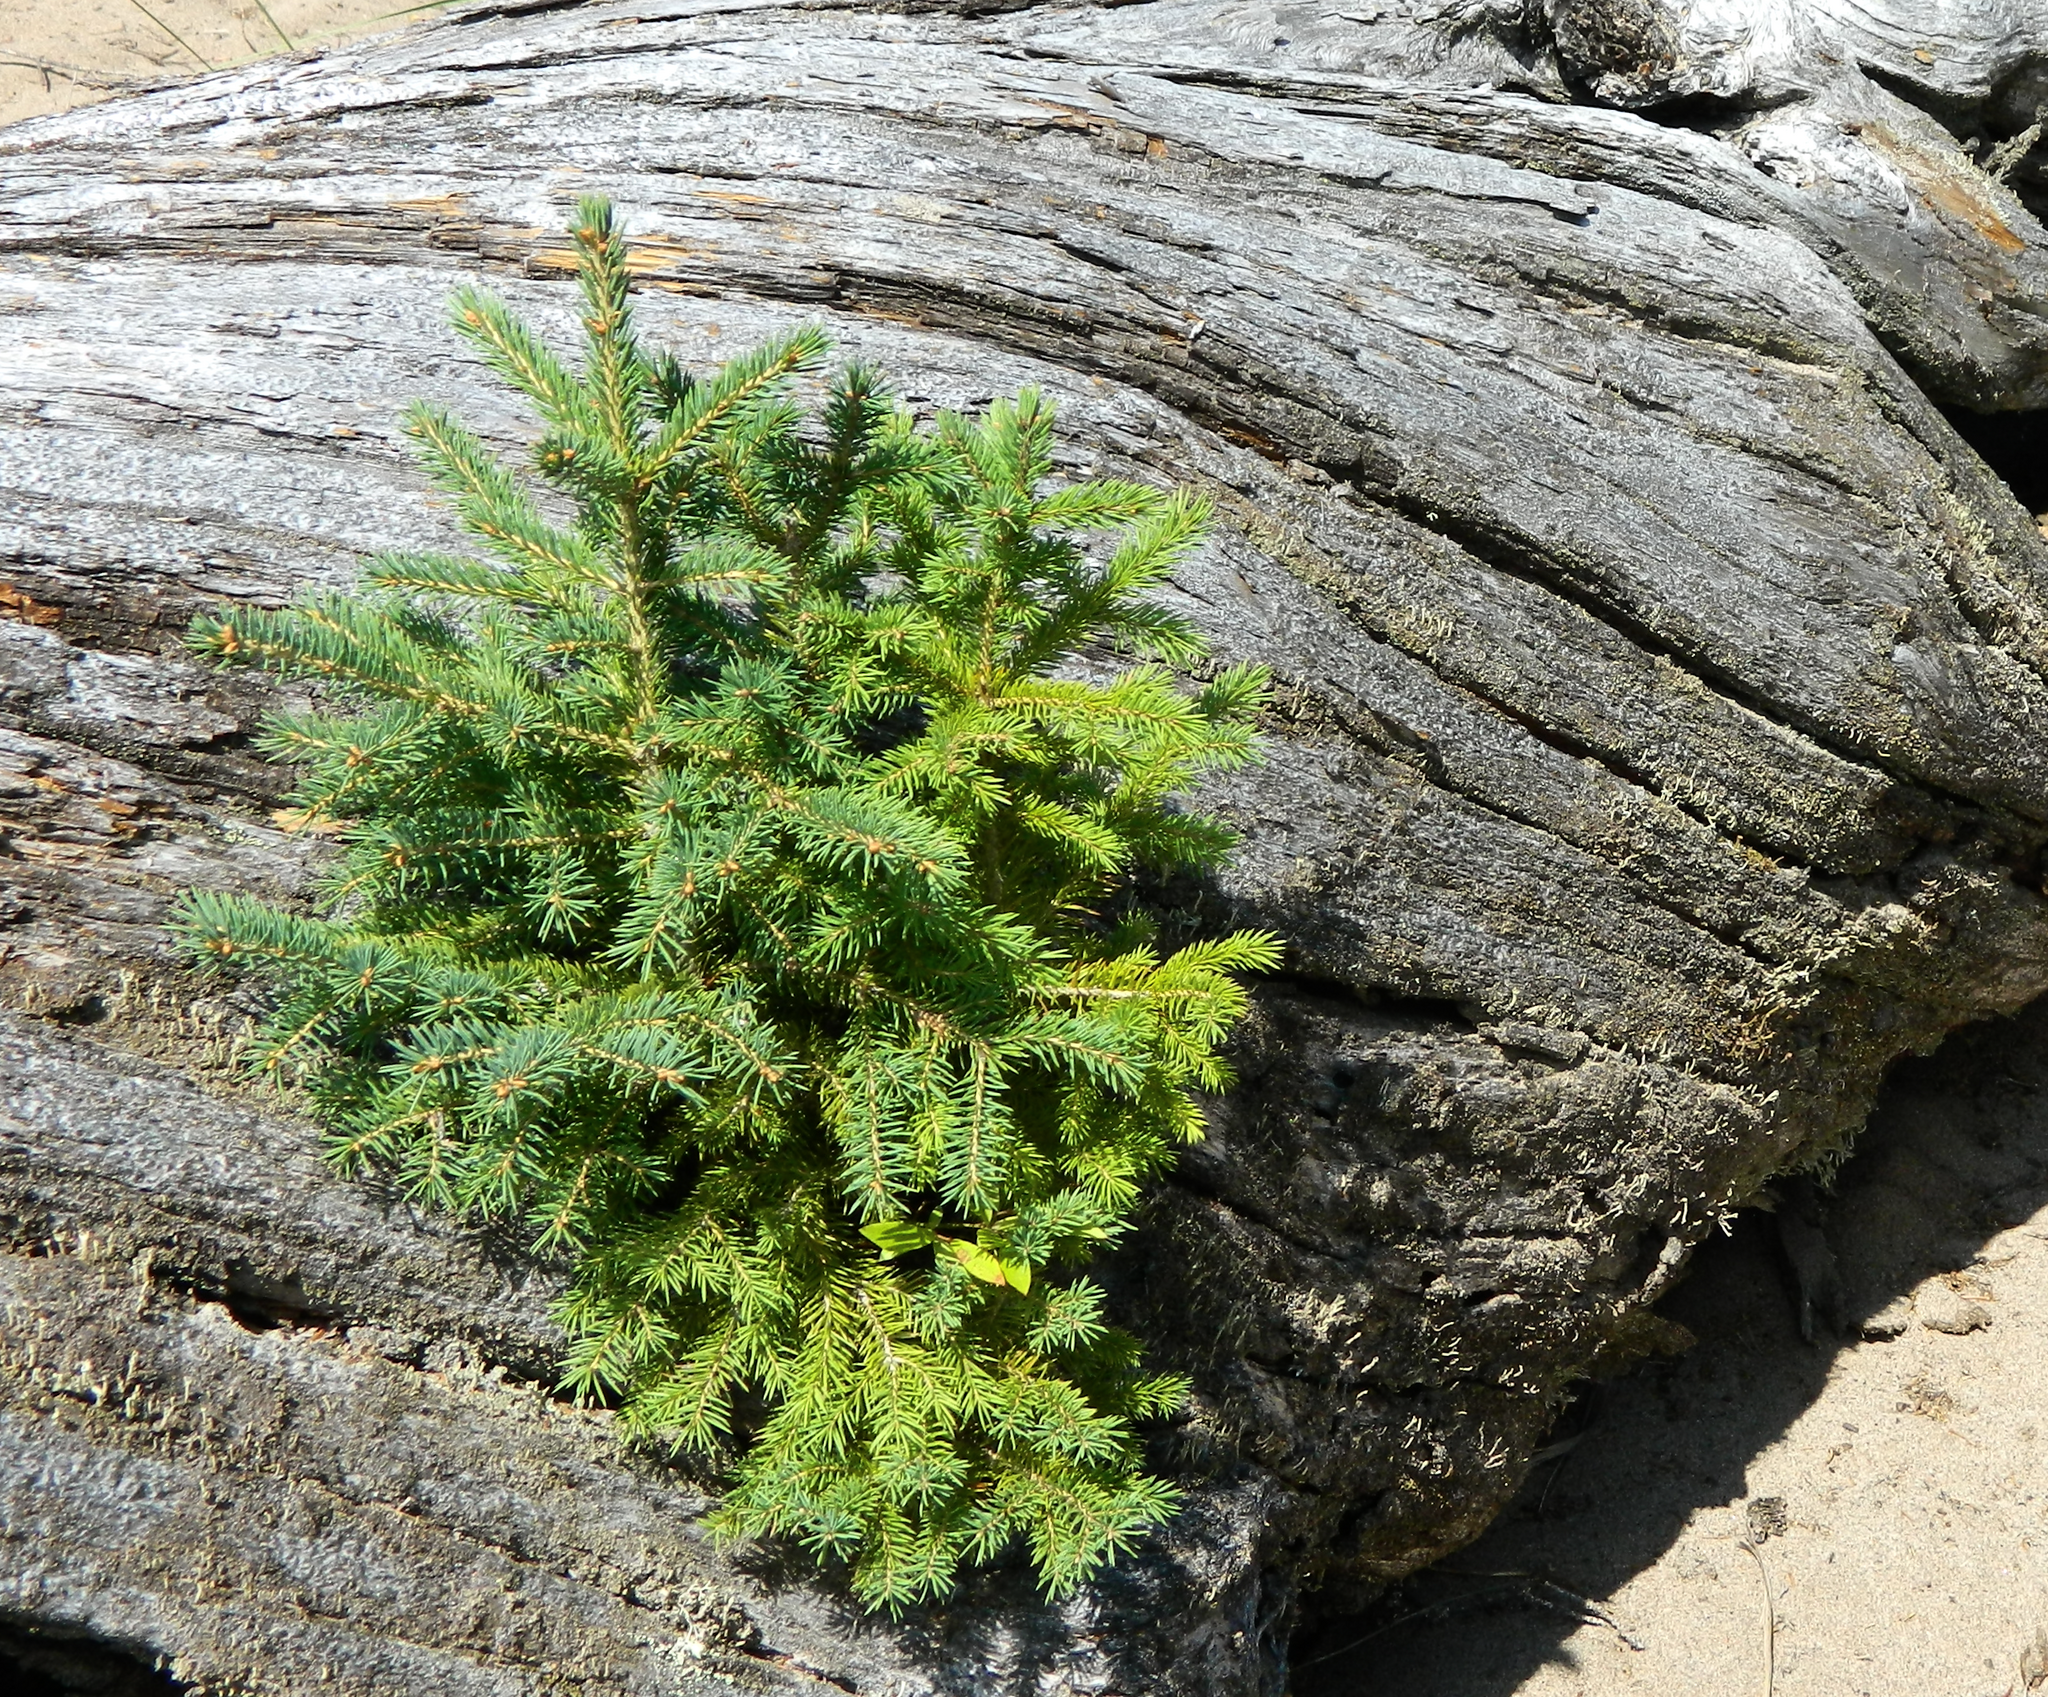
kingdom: Plantae
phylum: Tracheophyta
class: Pinopsida
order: Pinales
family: Pinaceae
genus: Picea
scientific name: Picea glauca
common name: White spruce
